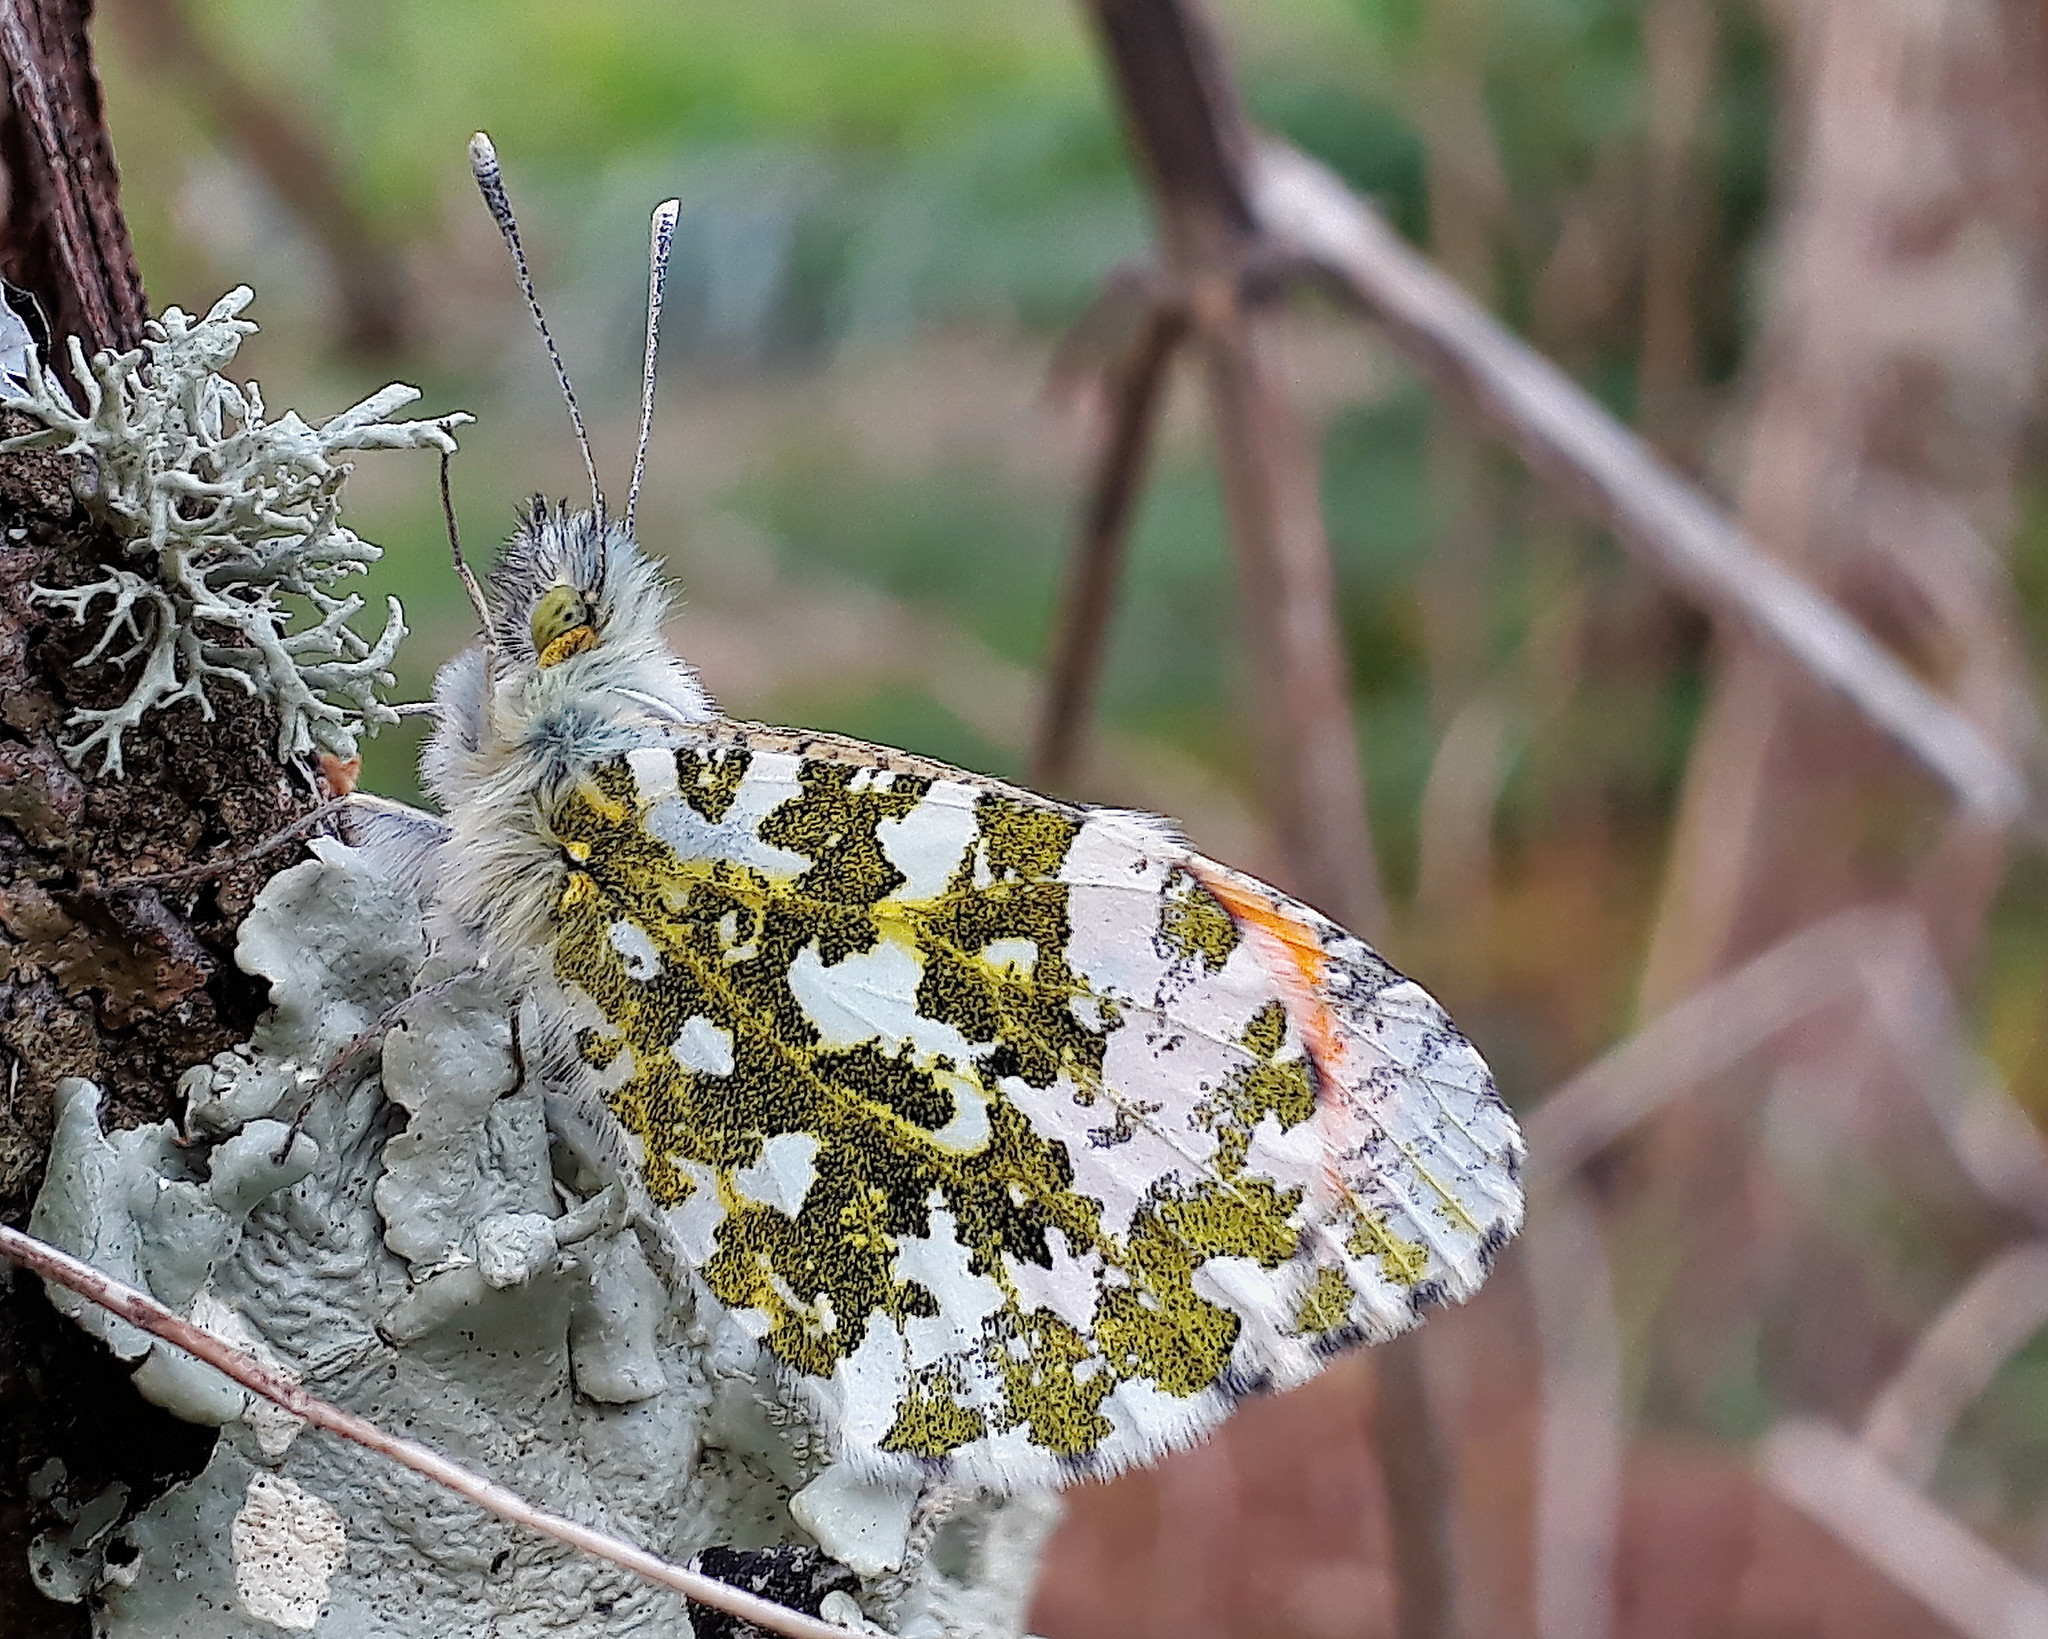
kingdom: Animalia
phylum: Arthropoda
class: Insecta
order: Lepidoptera
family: Pieridae
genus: Anthocharis
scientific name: Anthocharis cardamines
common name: Orange-tip
